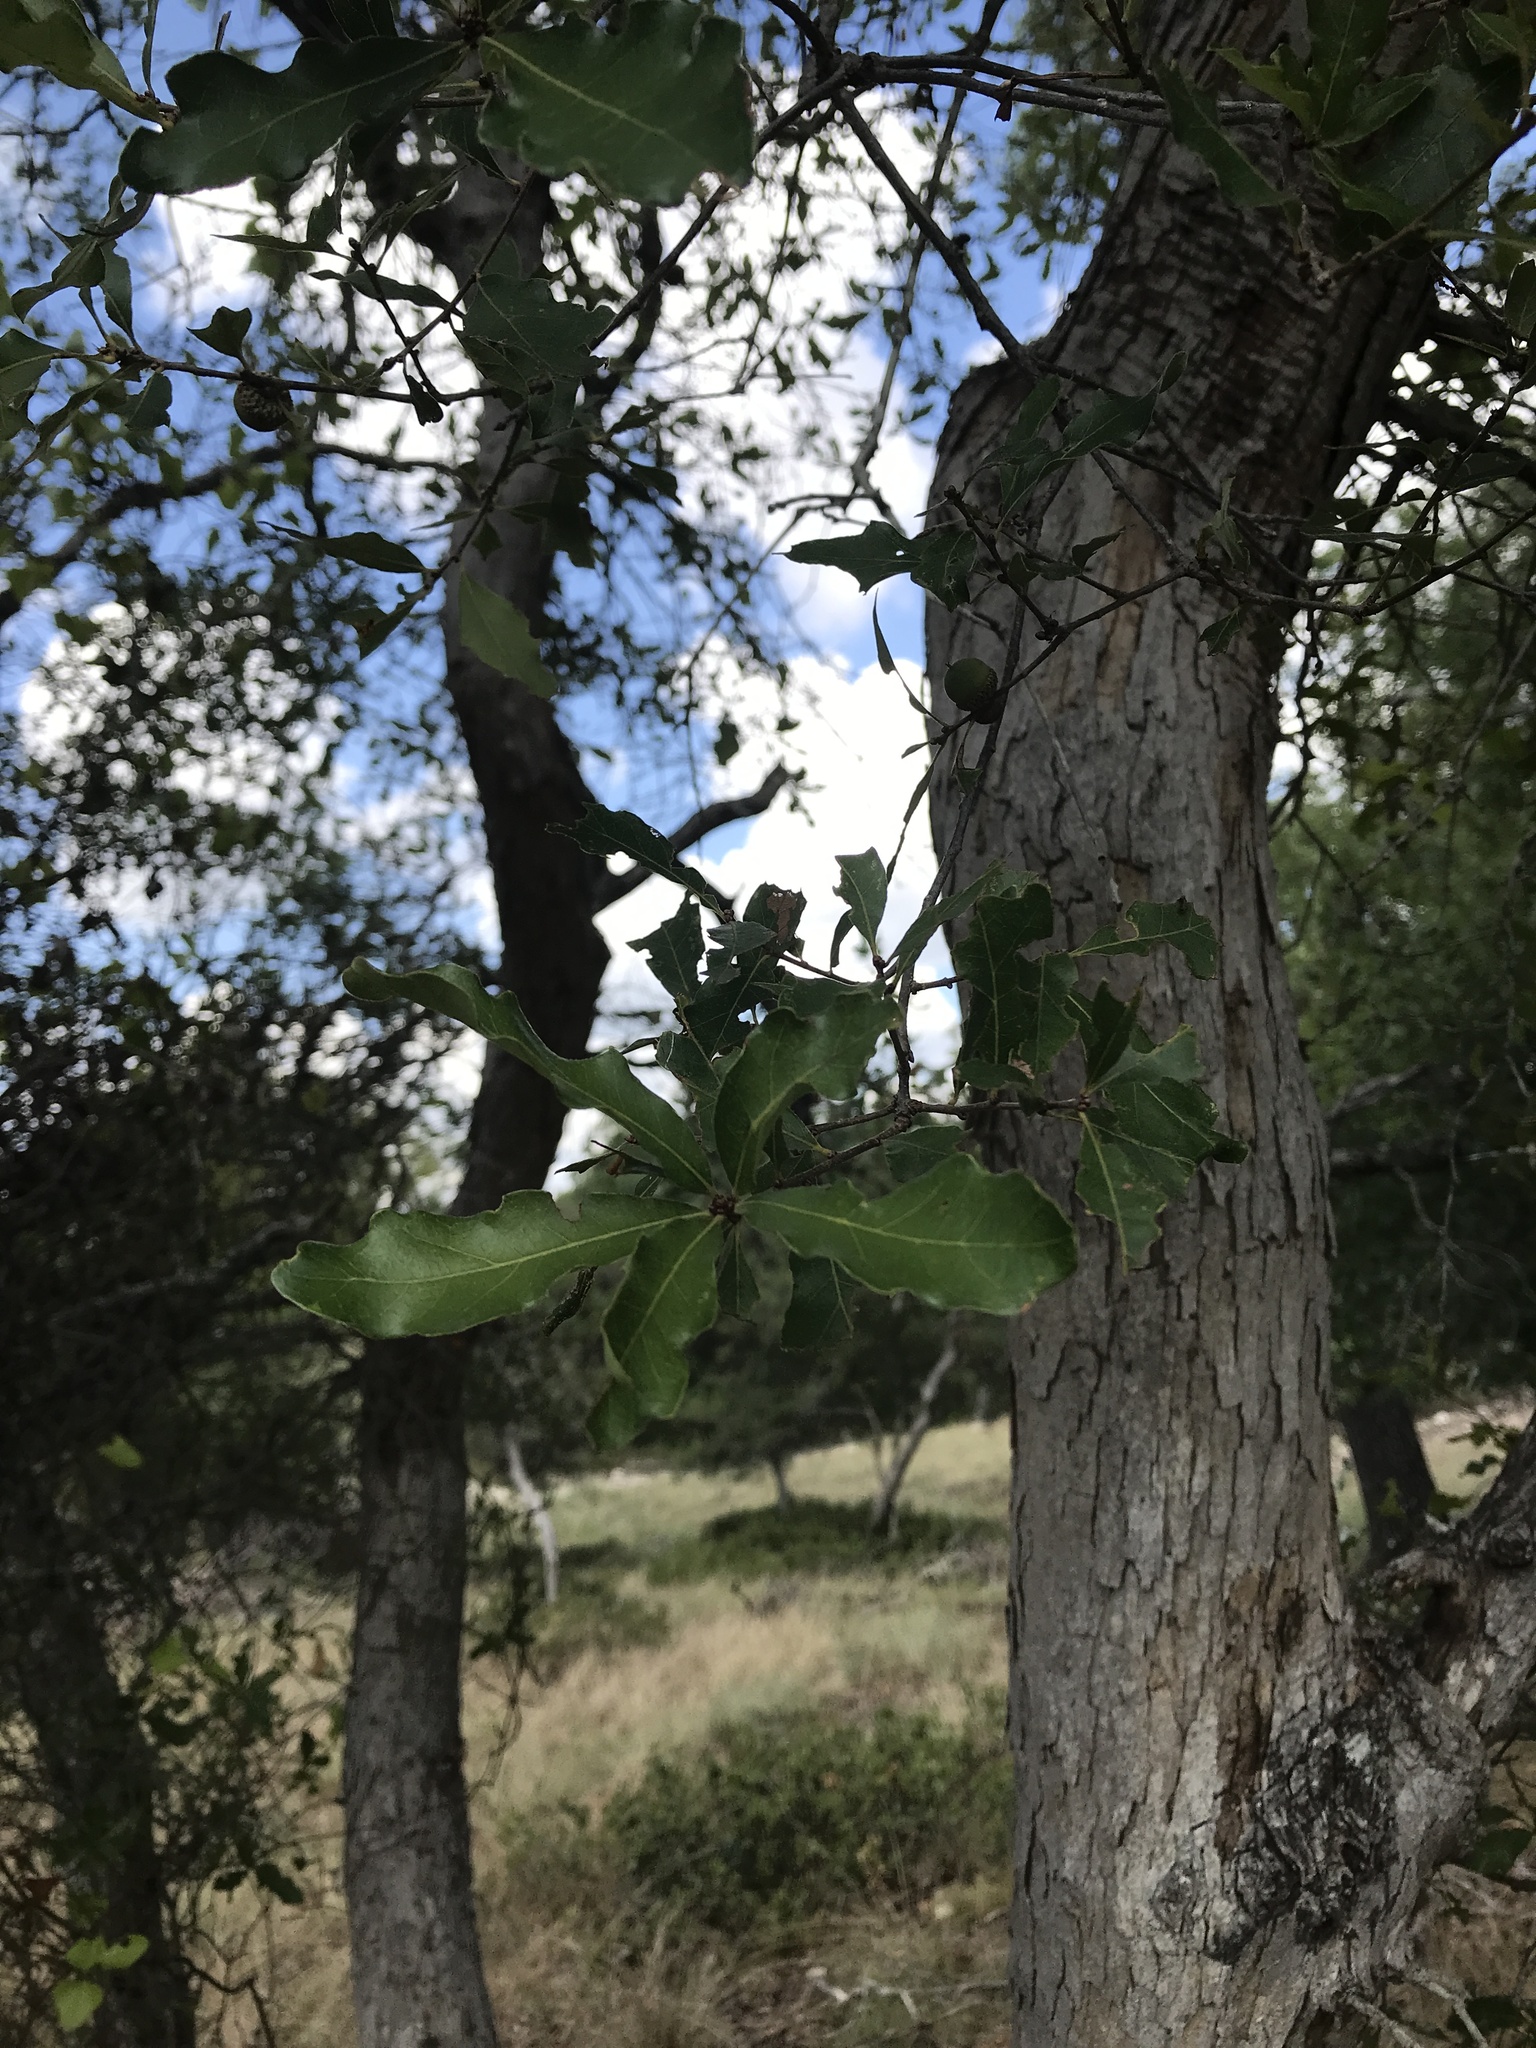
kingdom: Plantae
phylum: Tracheophyta
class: Magnoliopsida
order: Fagales
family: Fagaceae
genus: Quercus
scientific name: Quercus sinuata
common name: Durand oak
